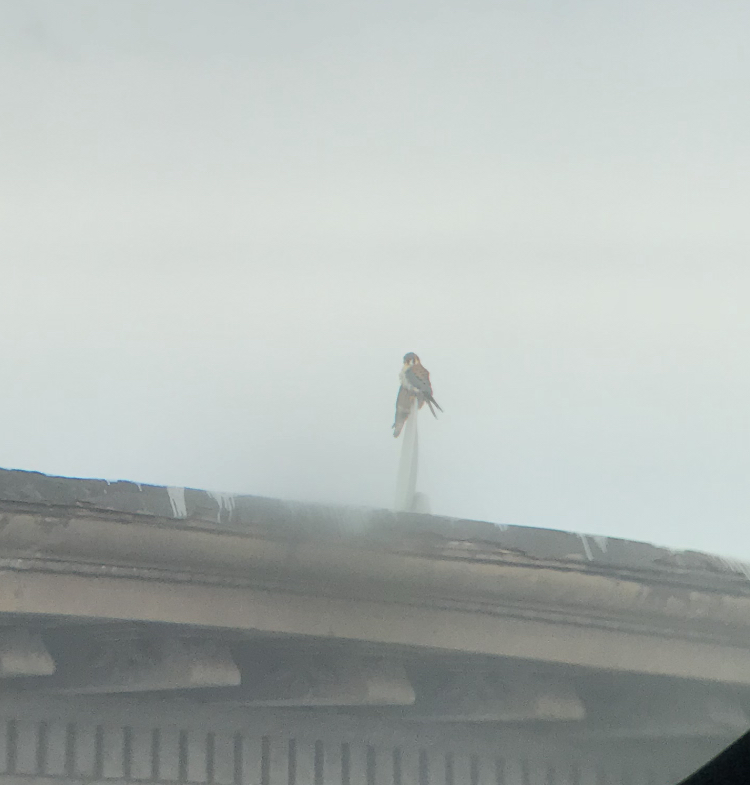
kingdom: Animalia
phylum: Chordata
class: Aves
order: Falconiformes
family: Falconidae
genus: Falco
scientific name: Falco sparverius
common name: American kestrel
